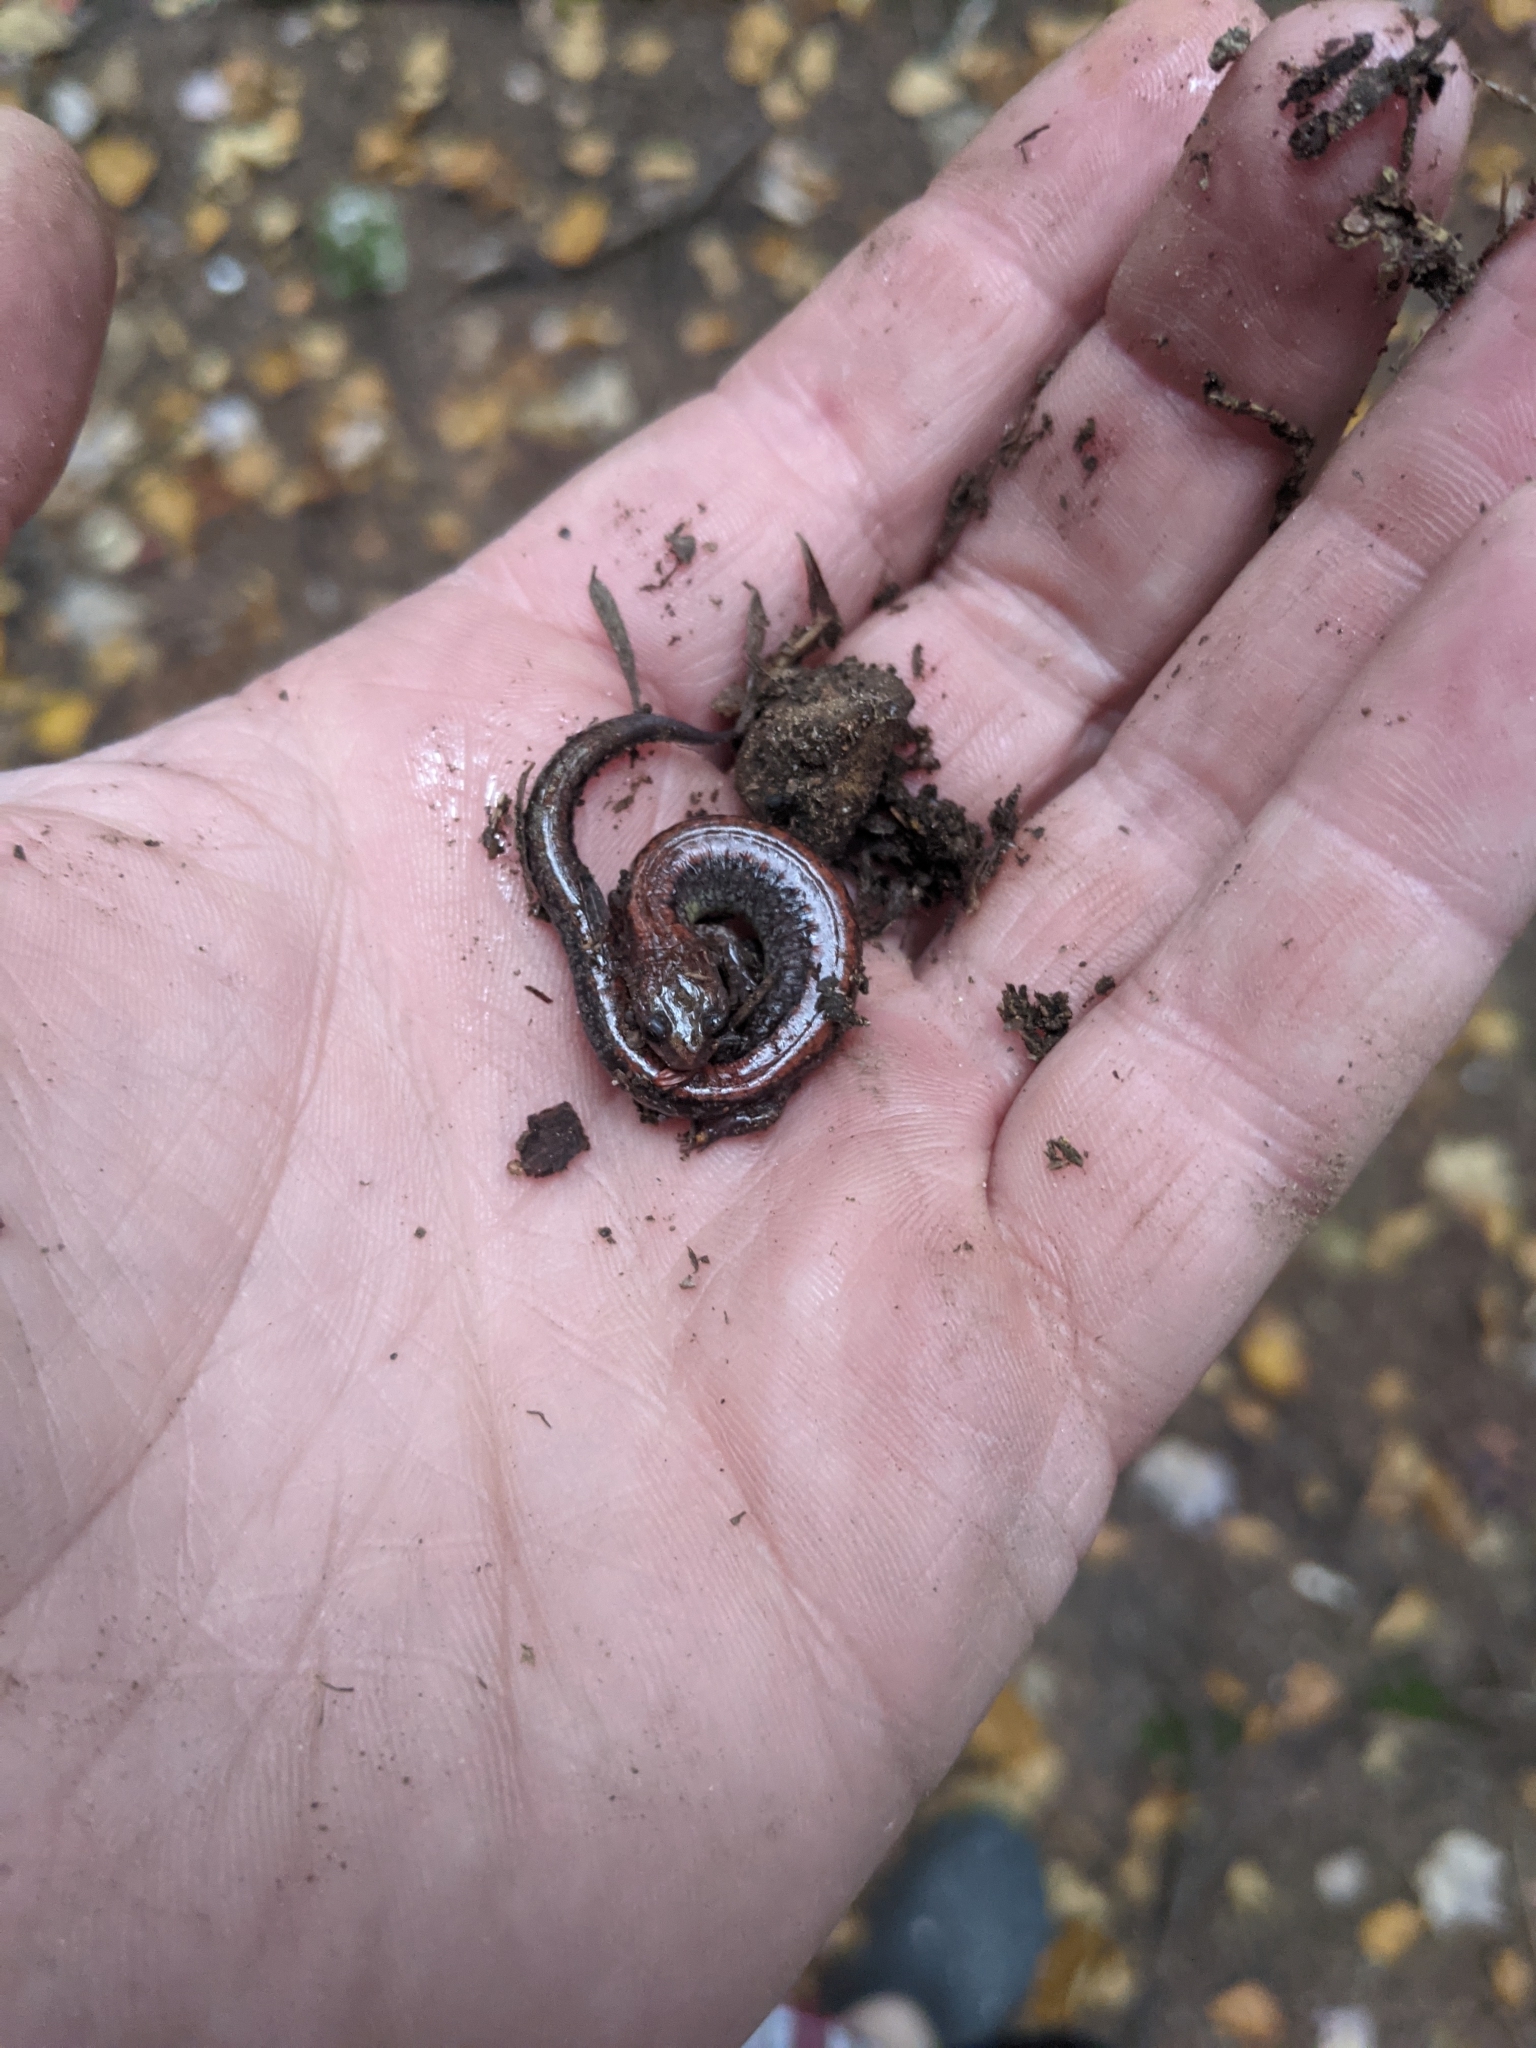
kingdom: Animalia
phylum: Chordata
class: Amphibia
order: Caudata
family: Plethodontidae
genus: Plethodon
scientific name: Plethodon cinereus
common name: Redback salamander
